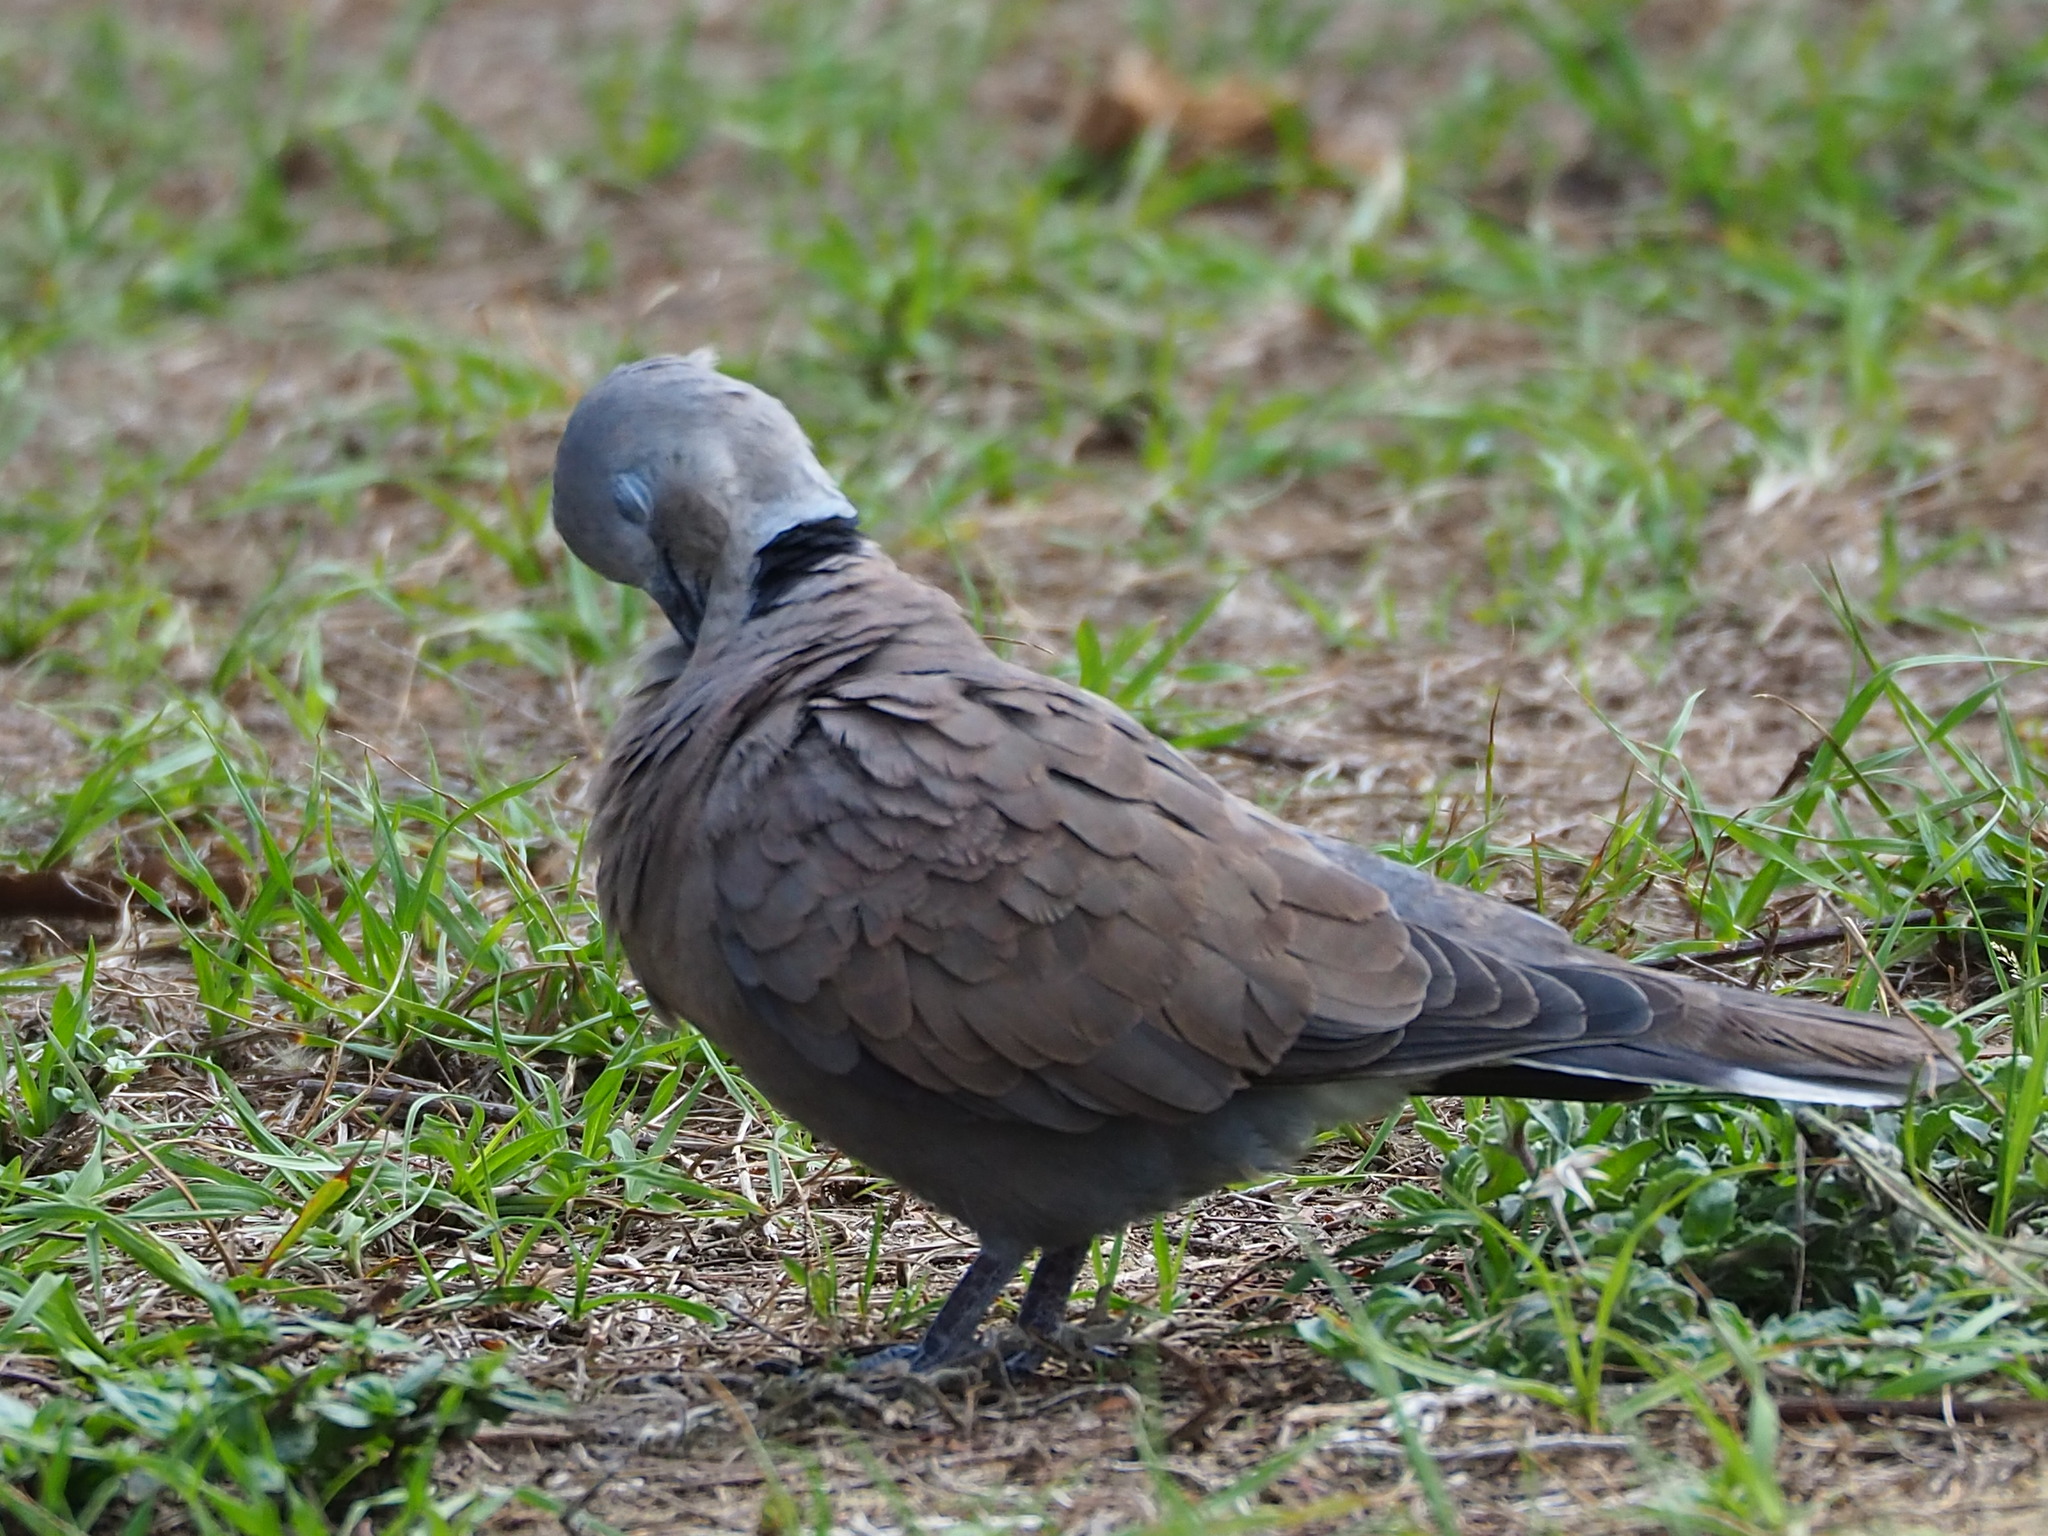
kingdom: Animalia
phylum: Chordata
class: Aves
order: Columbiformes
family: Columbidae
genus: Streptopelia
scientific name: Streptopelia tranquebarica
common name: Red turtle dove
